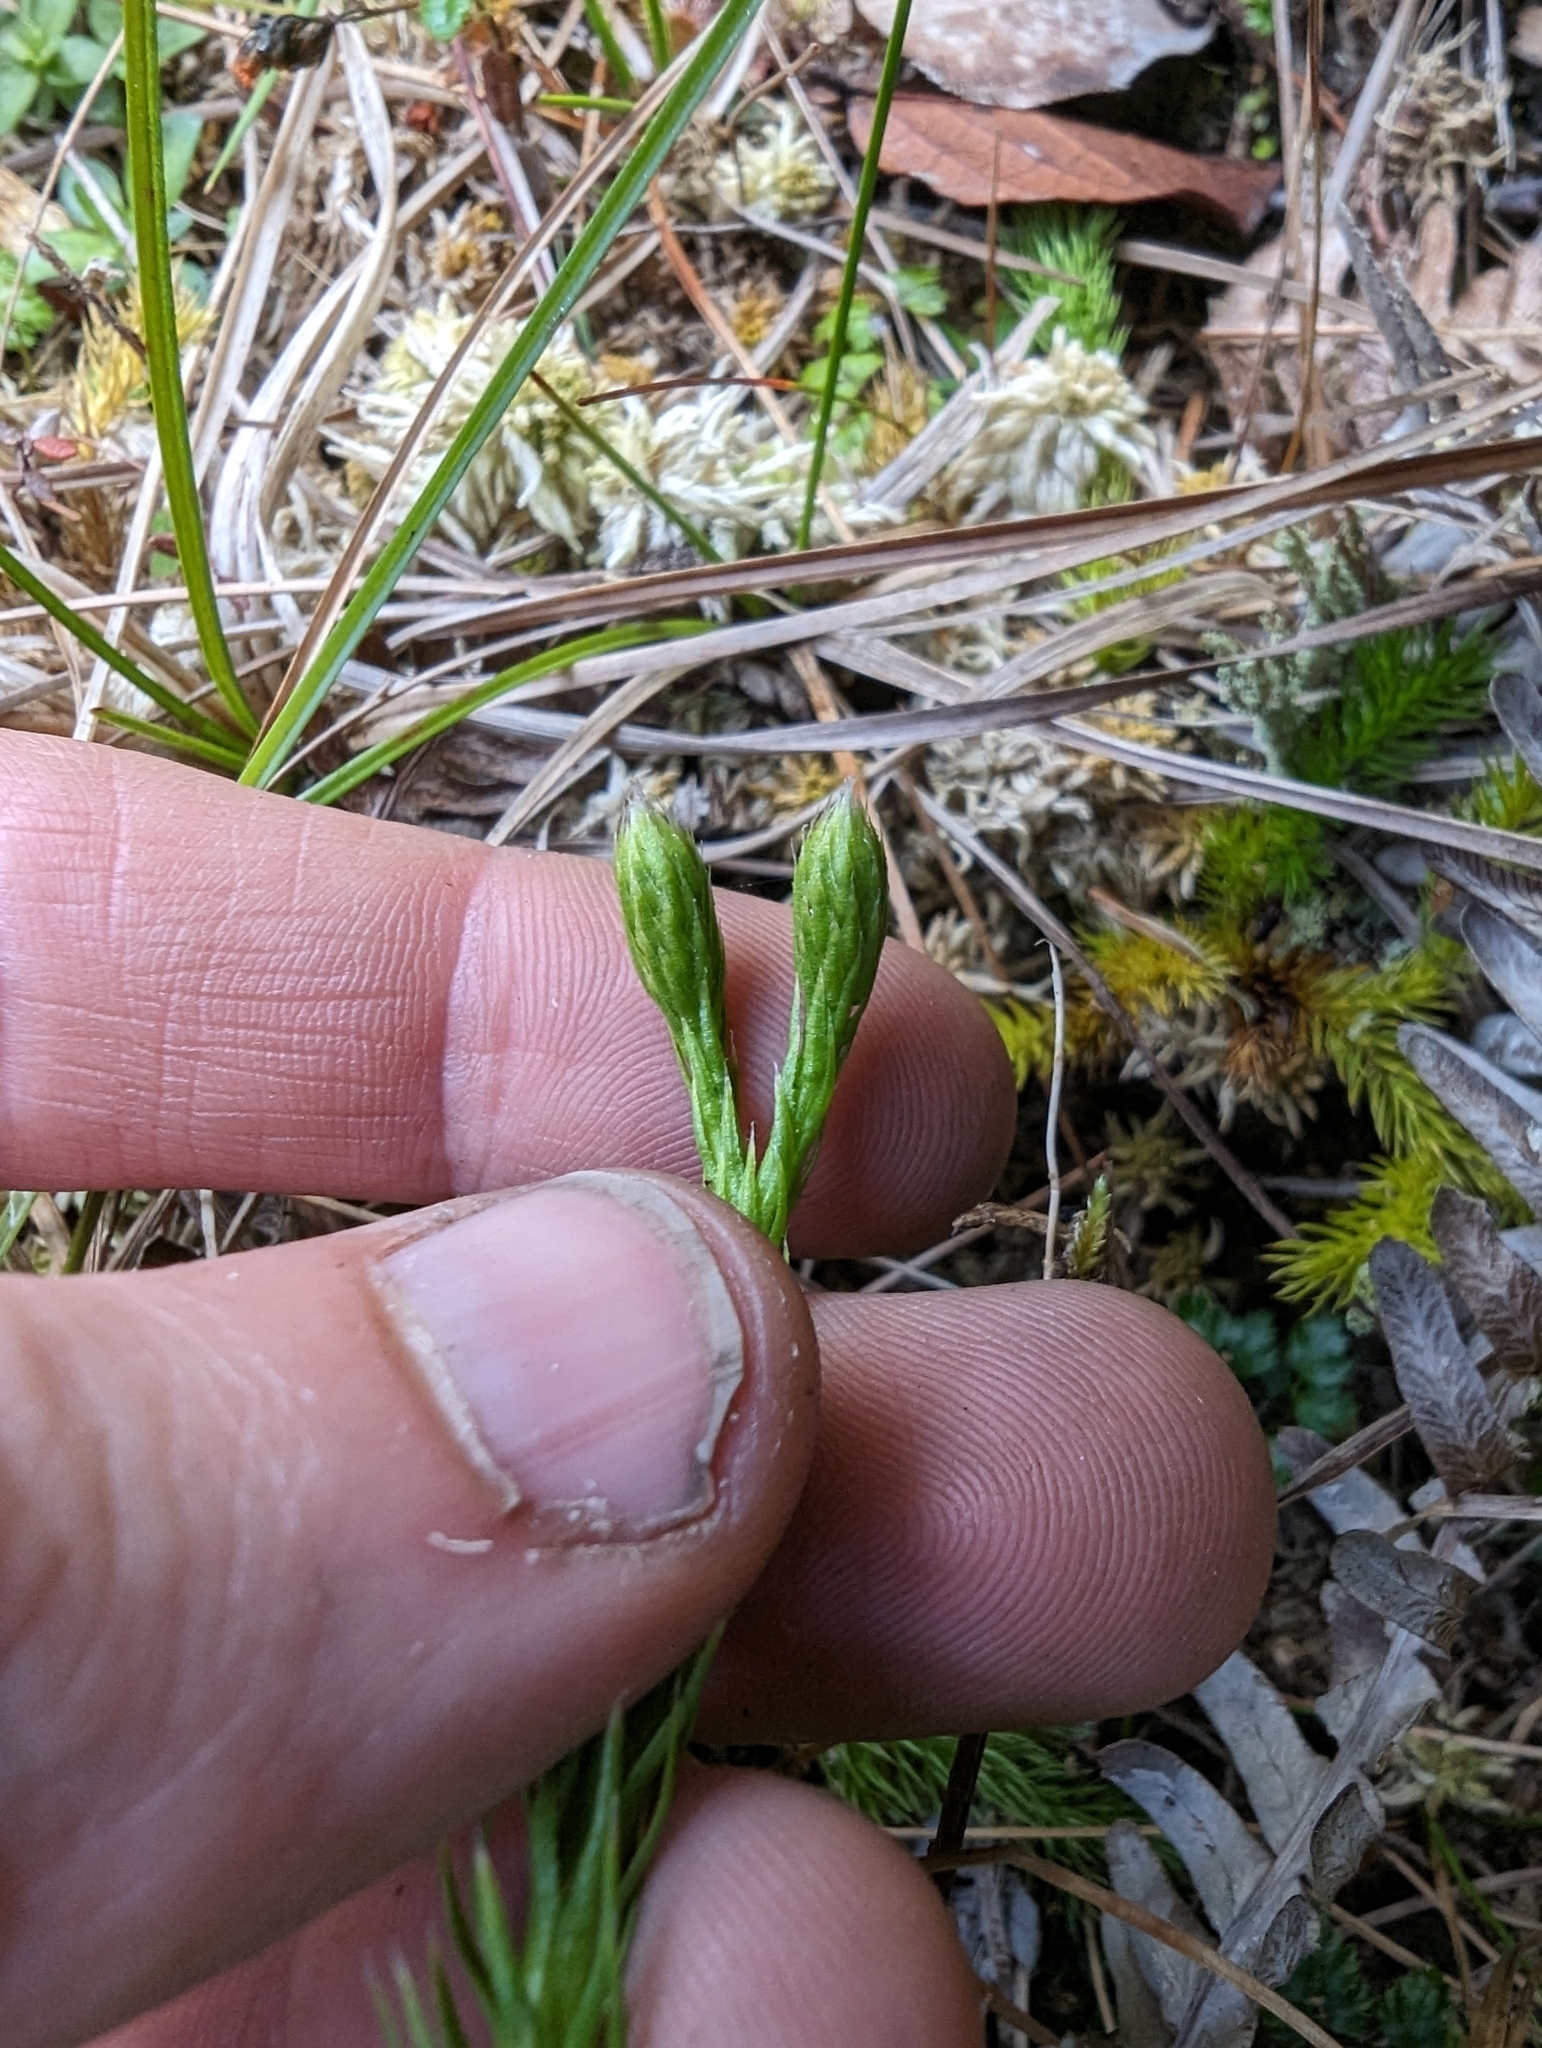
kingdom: Plantae
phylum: Tracheophyta
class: Lycopodiopsida
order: Lycopodiales
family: Lycopodiaceae
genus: Lycopodium
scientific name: Lycopodium clavatum
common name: Stag's-horn clubmoss
